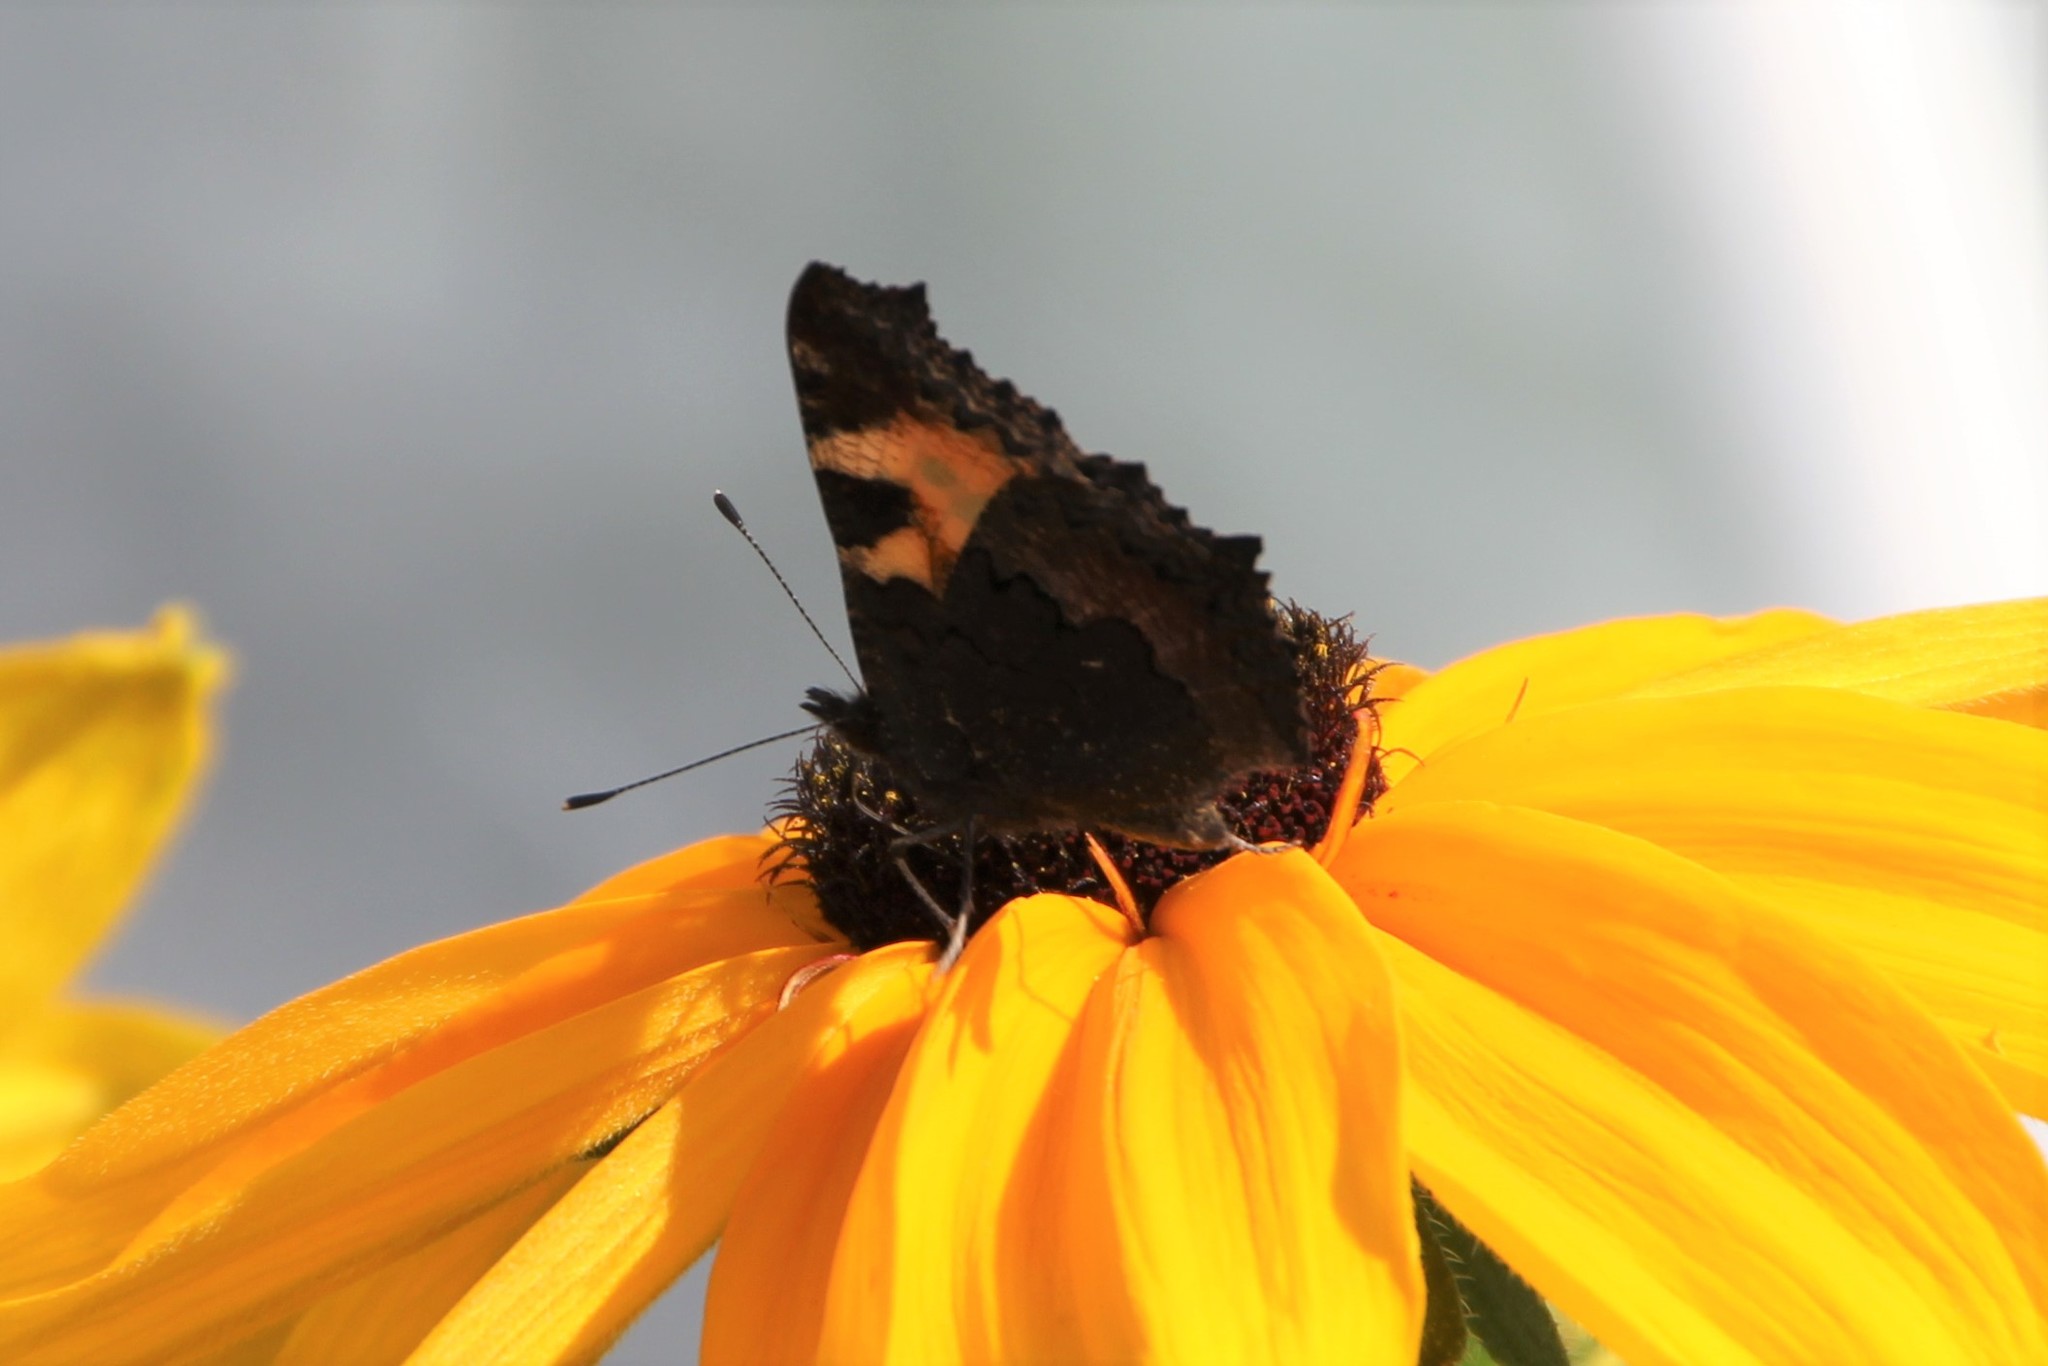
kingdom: Animalia
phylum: Arthropoda
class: Insecta
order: Lepidoptera
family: Nymphalidae
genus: Aglais
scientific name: Aglais urticae
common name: Small tortoiseshell
